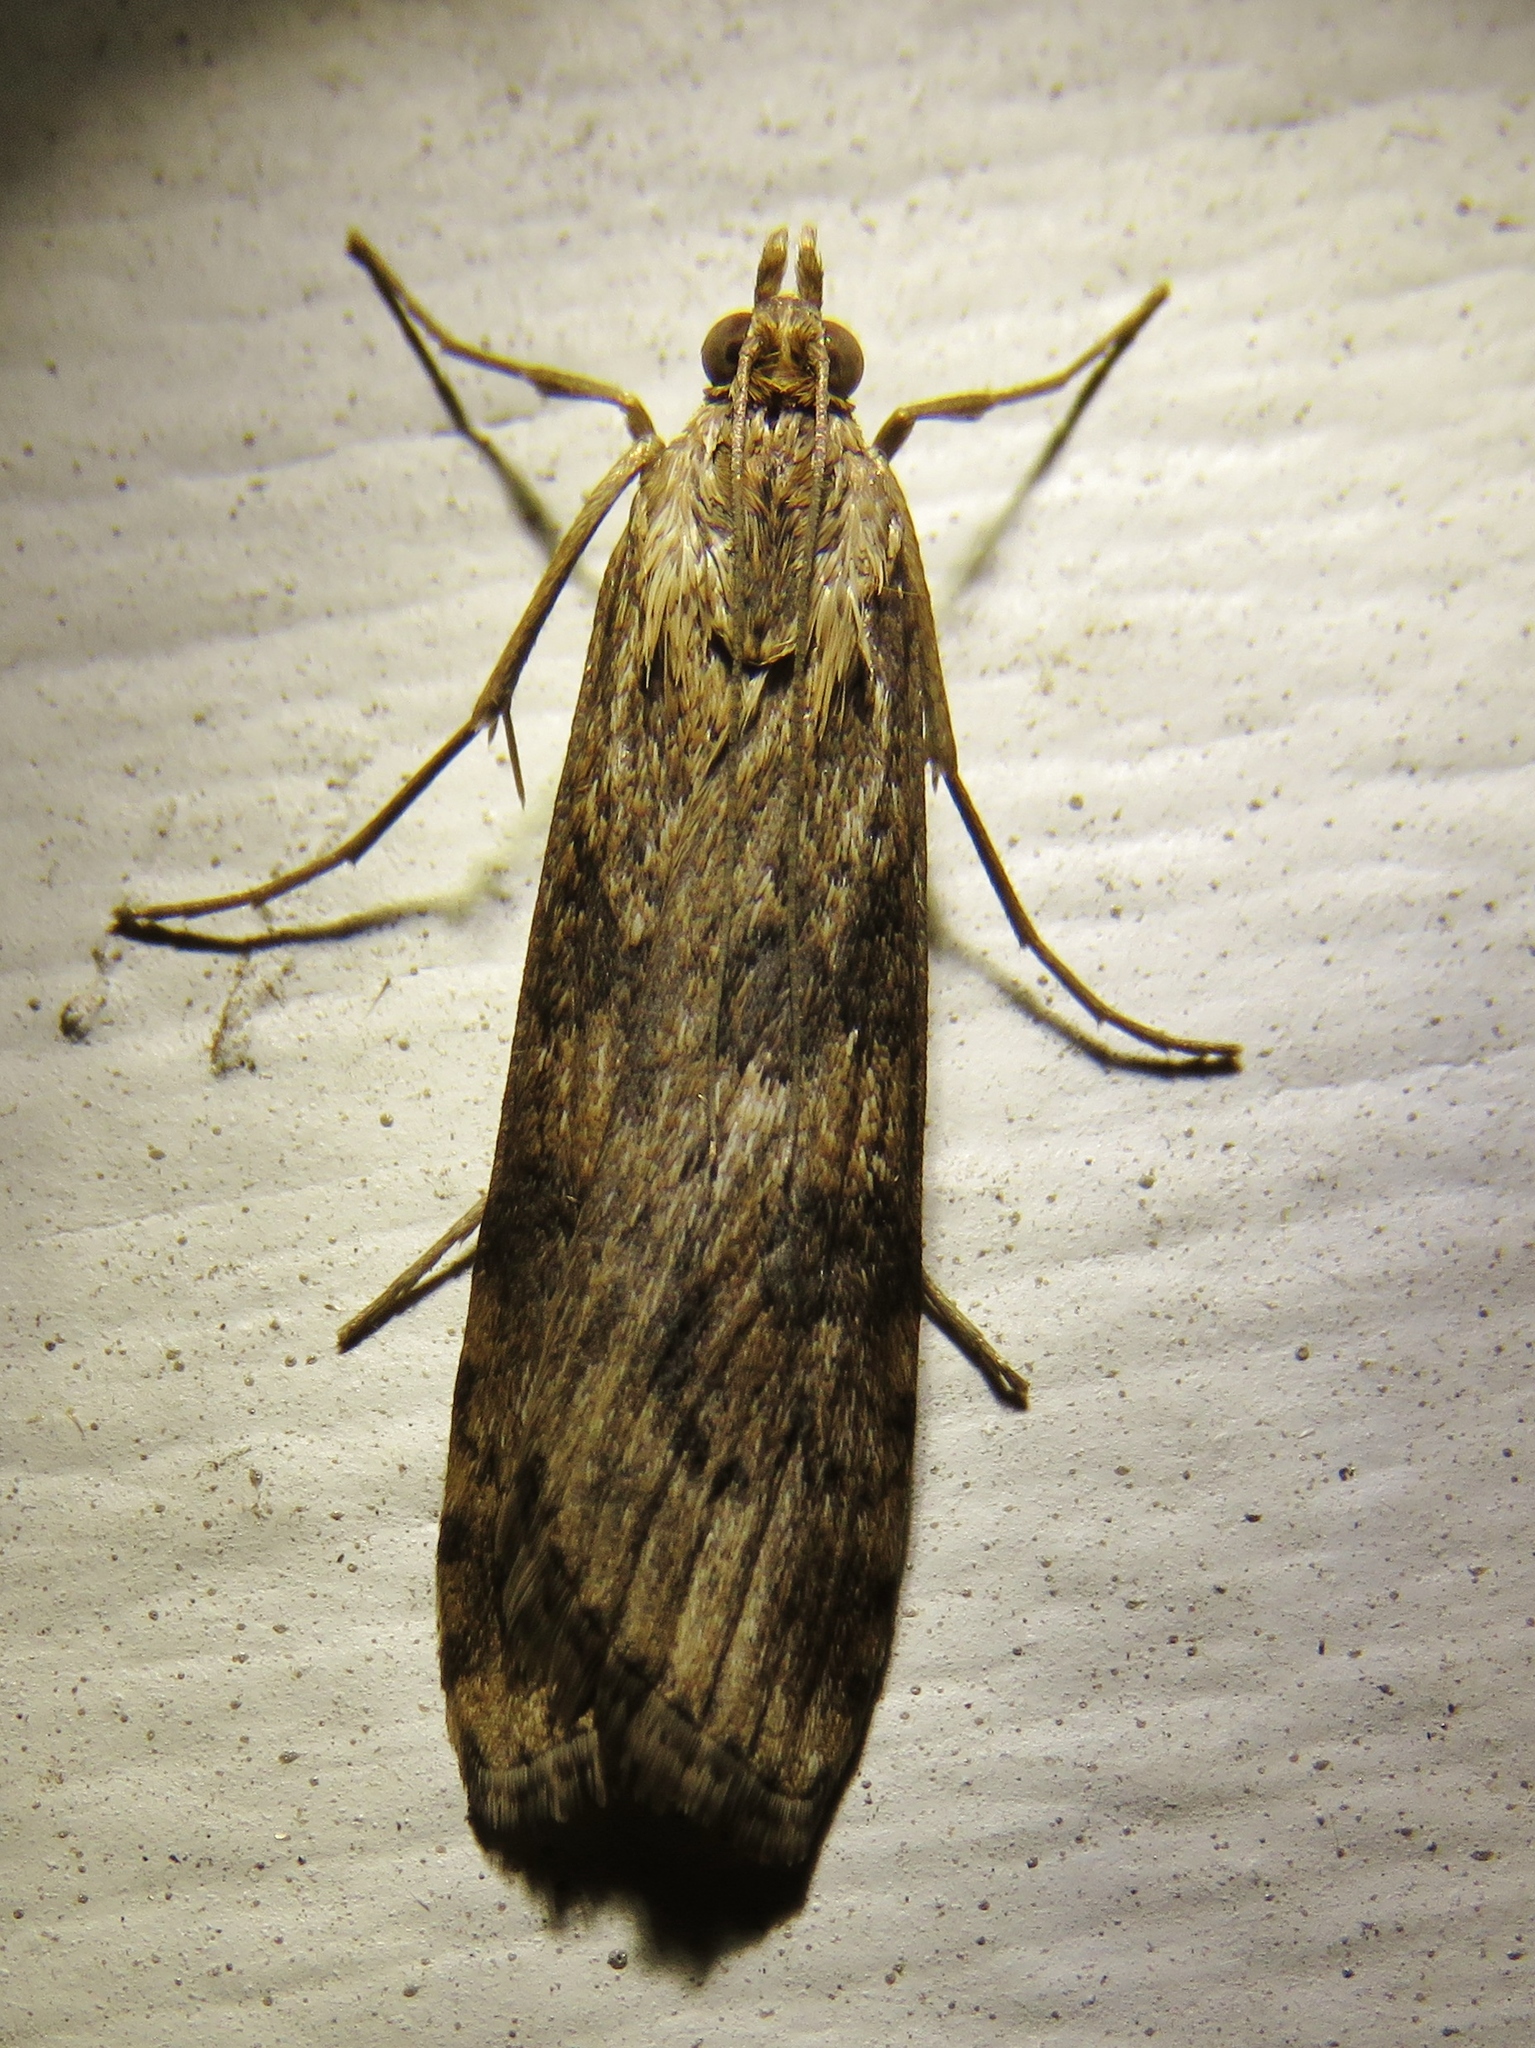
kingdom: Animalia
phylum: Arthropoda
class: Insecta
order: Lepidoptera
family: Crambidae
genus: Nomophila
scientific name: Nomophila nearctica
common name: American rush veneer
